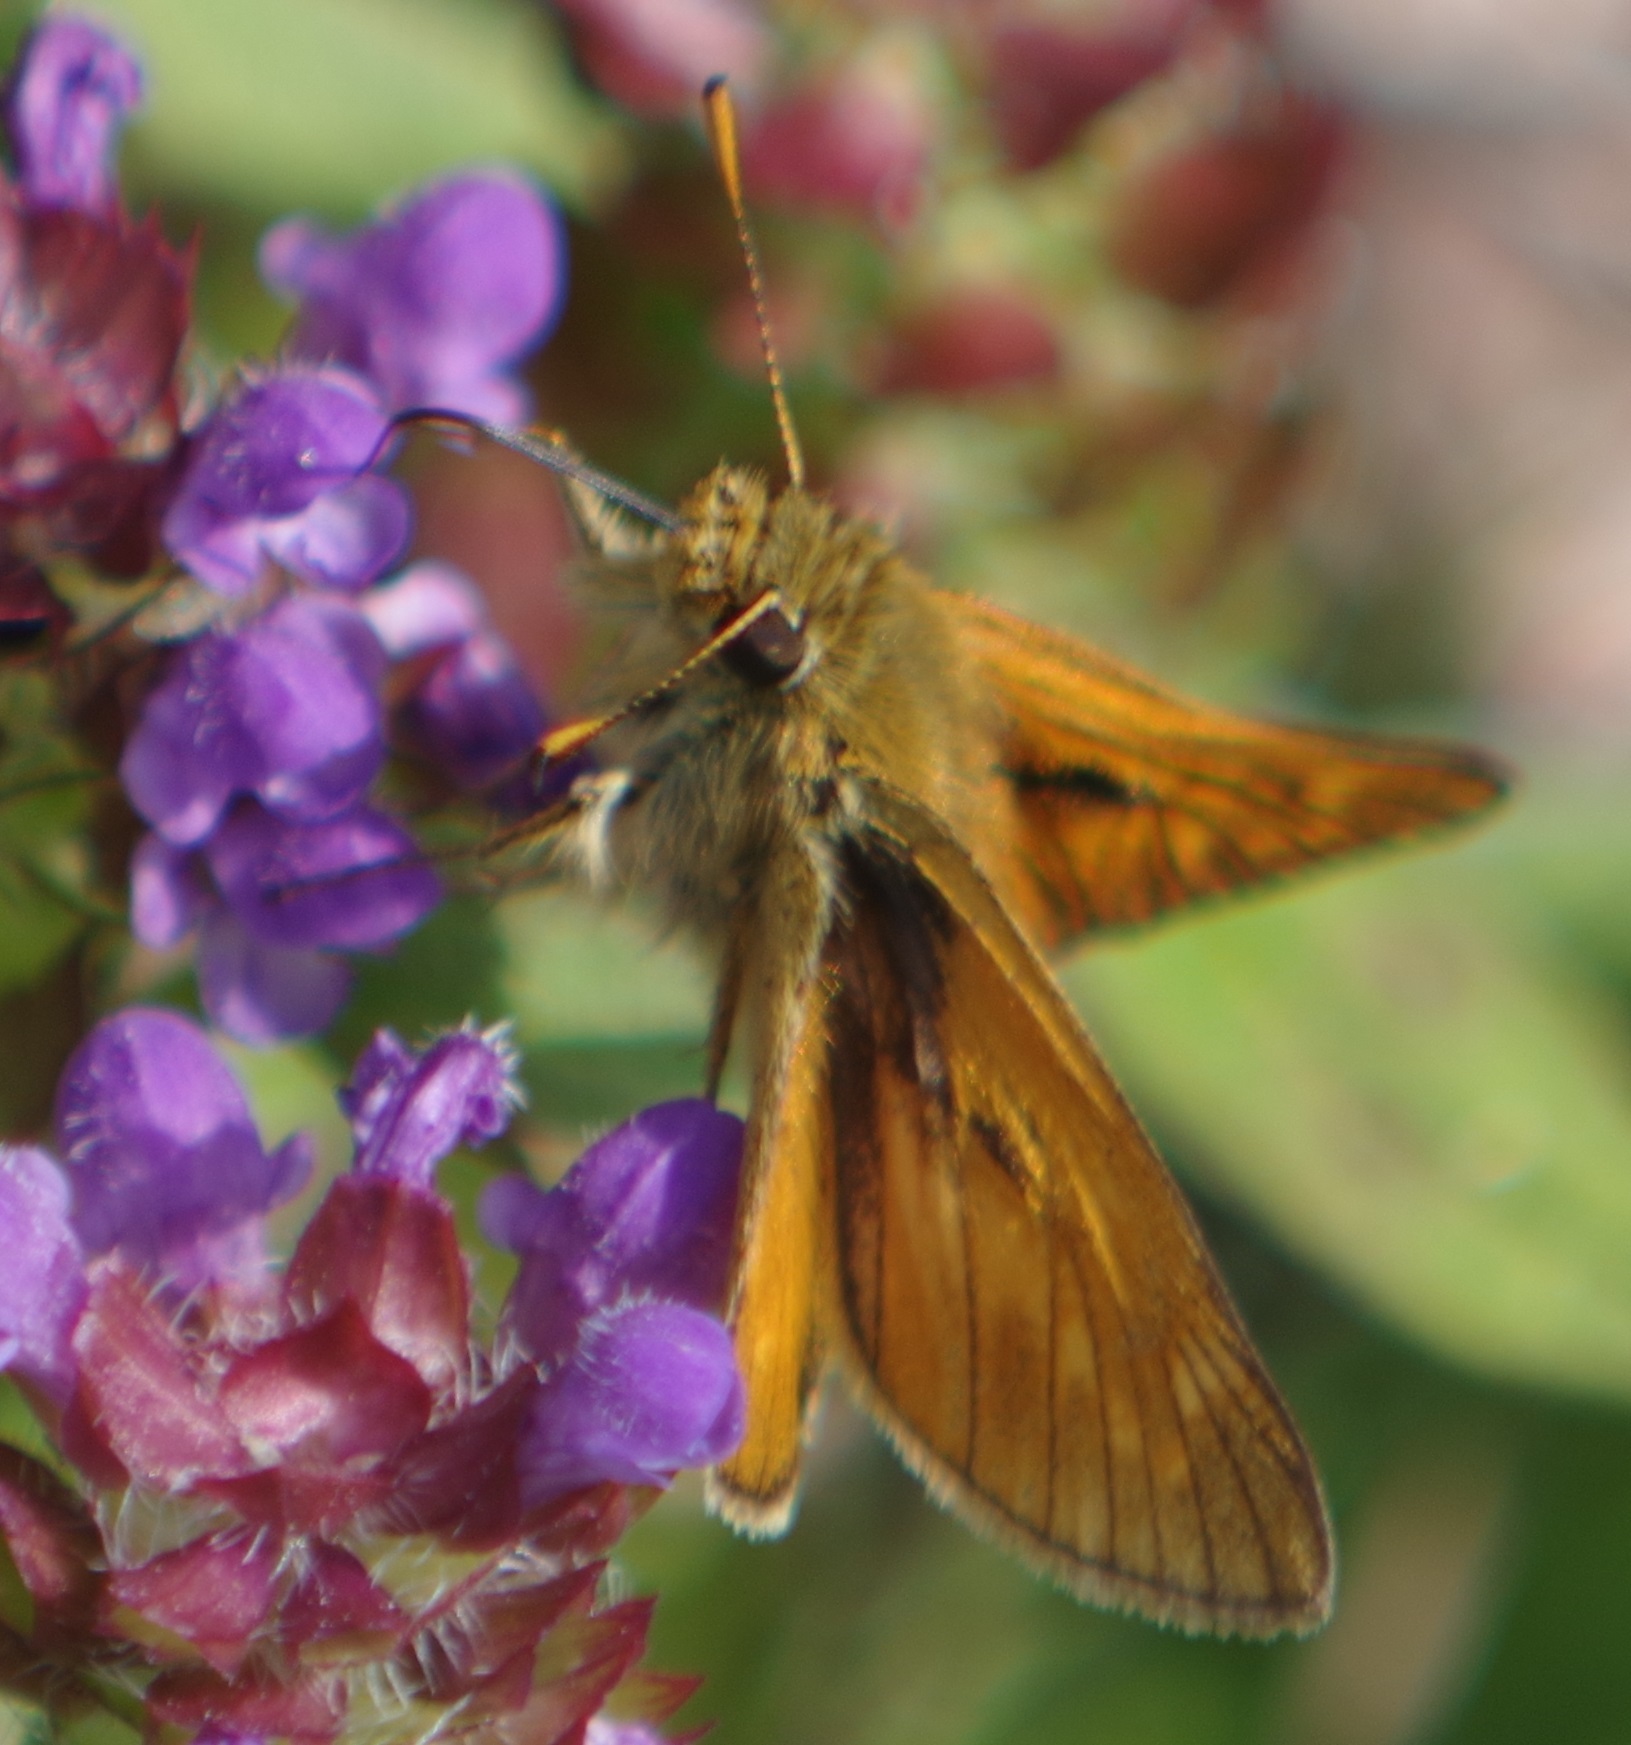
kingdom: Animalia
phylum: Arthropoda
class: Insecta
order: Lepidoptera
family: Hesperiidae
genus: Ochlodes
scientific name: Ochlodes venata
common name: Large skipper
